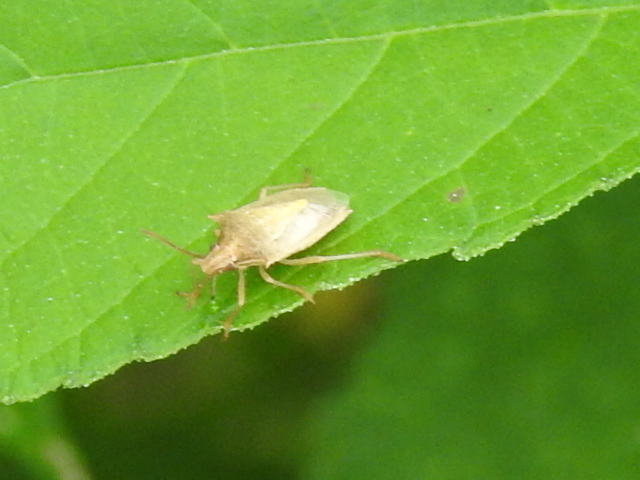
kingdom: Animalia
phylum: Arthropoda
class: Insecta
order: Hemiptera
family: Pentatomidae
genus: Oebalus
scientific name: Oebalus pugnax
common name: Rice stink bug
